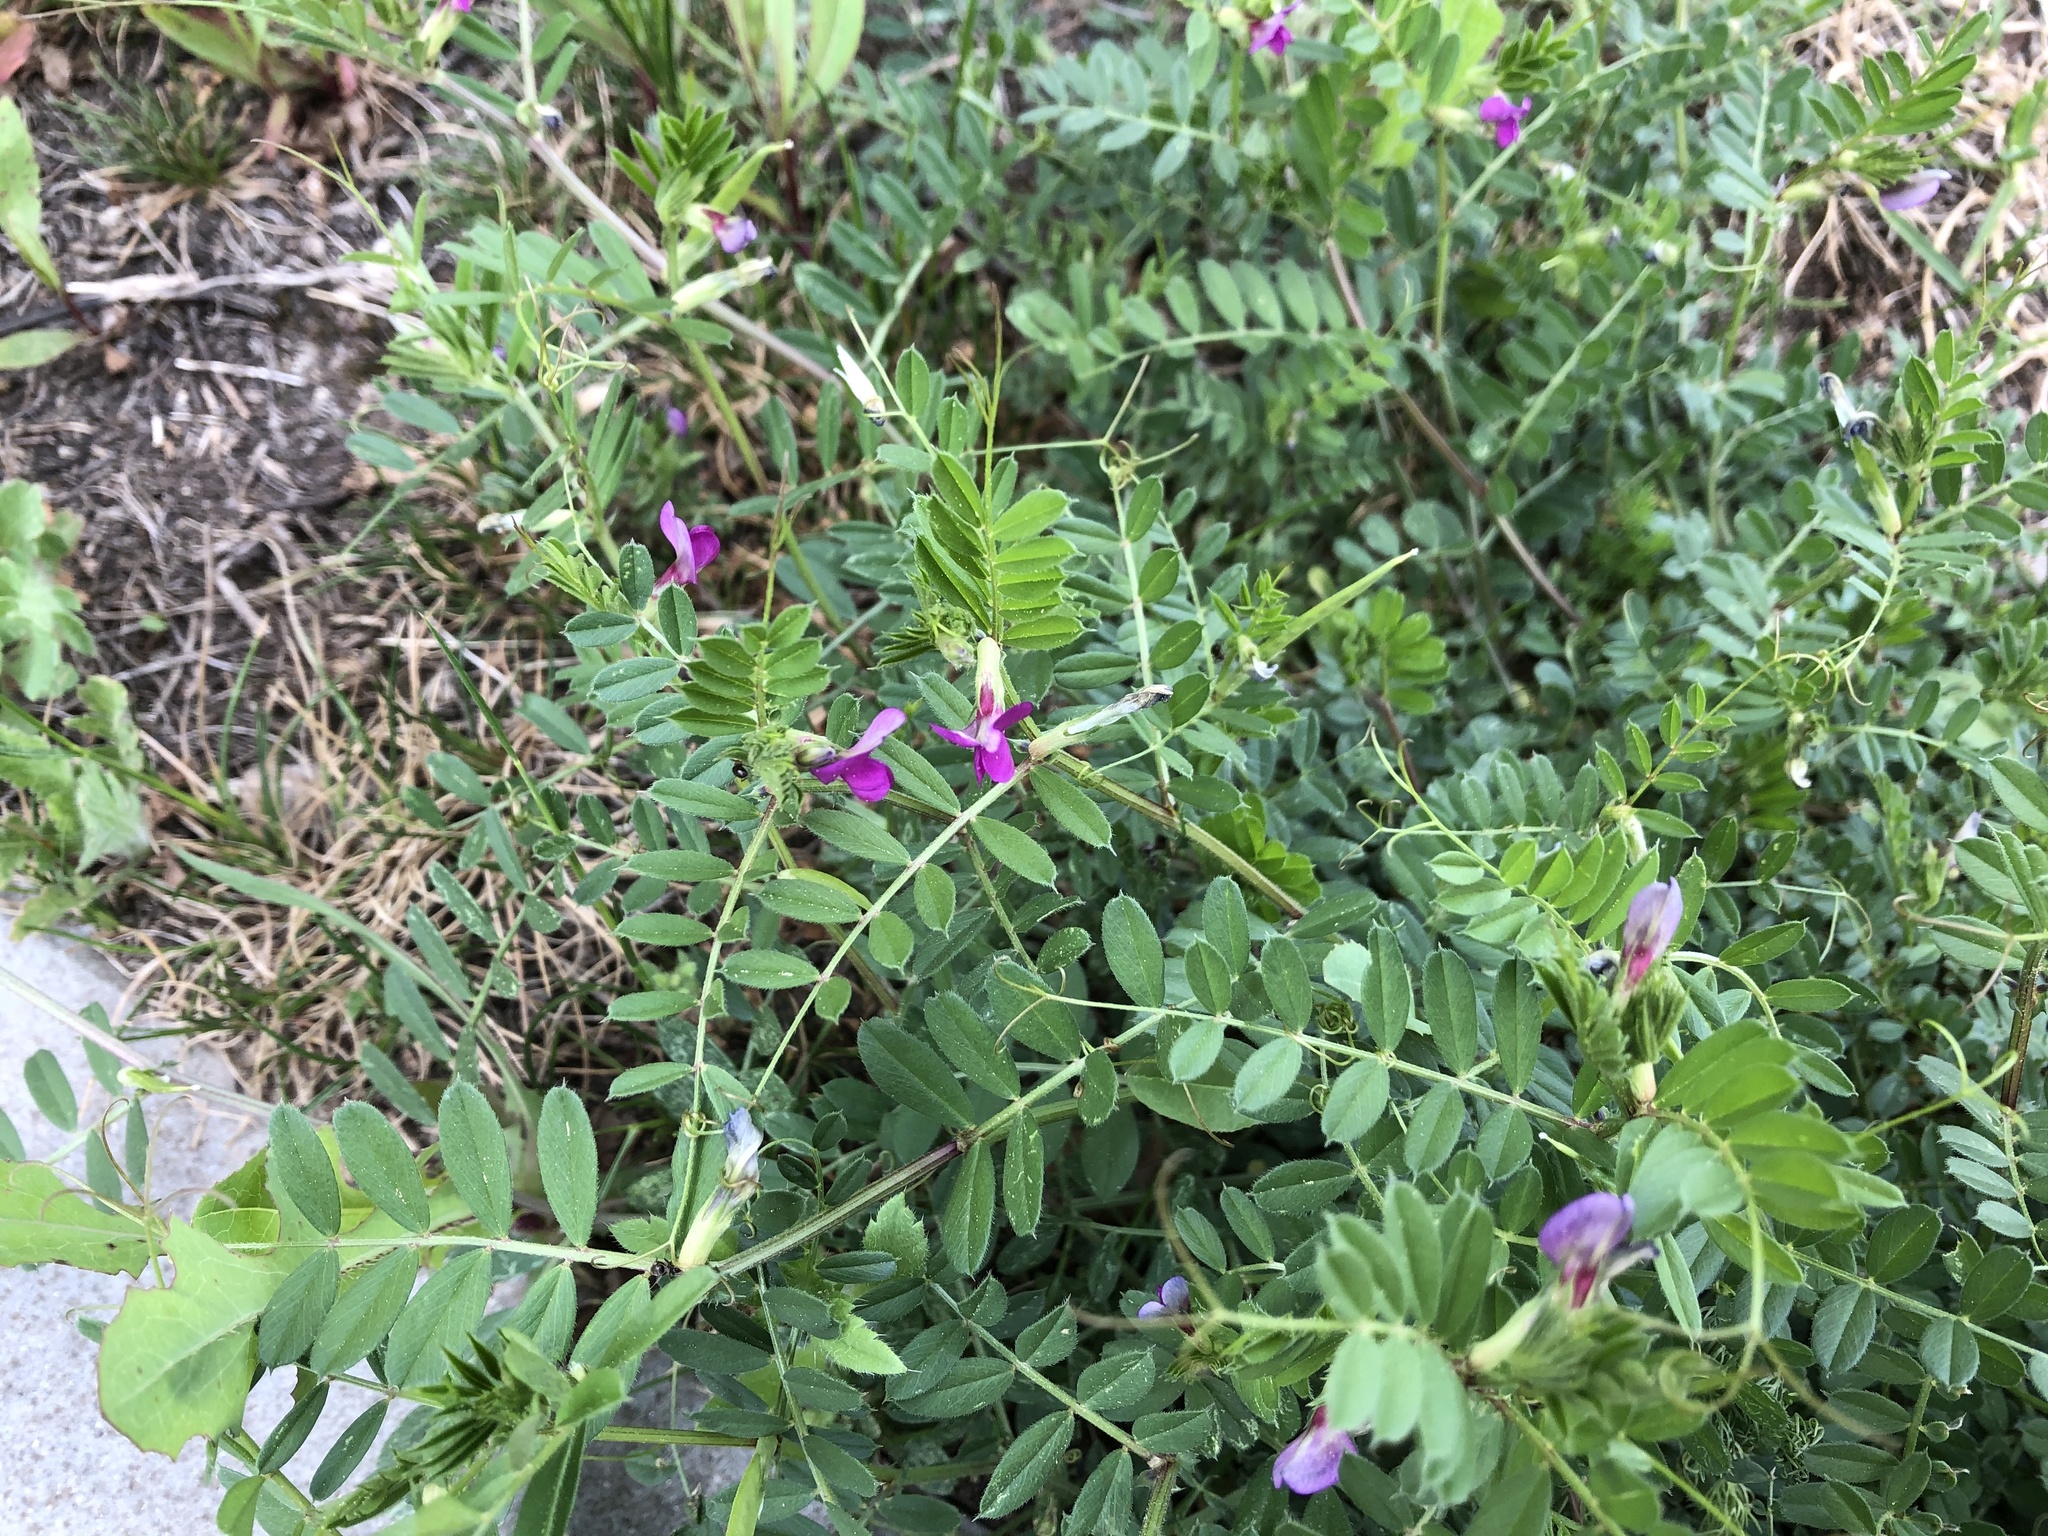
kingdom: Plantae
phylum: Tracheophyta
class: Magnoliopsida
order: Fabales
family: Fabaceae
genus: Vicia
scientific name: Vicia sativa
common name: Garden vetch
